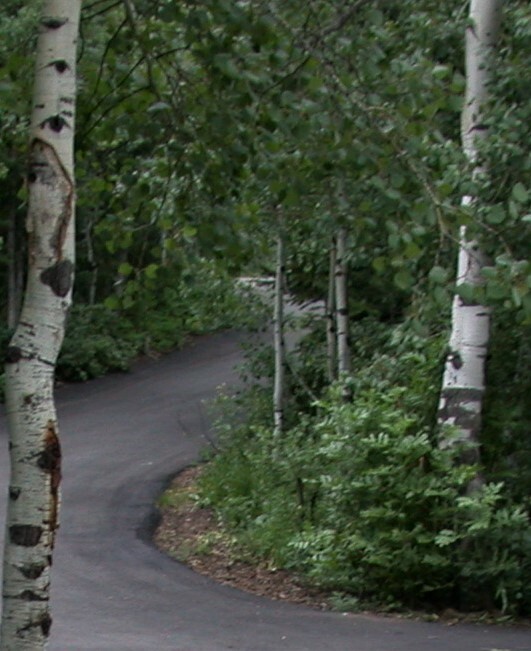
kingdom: Plantae
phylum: Tracheophyta
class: Magnoliopsida
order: Malpighiales
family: Salicaceae
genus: Populus
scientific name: Populus tremuloides
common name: Quaking aspen
